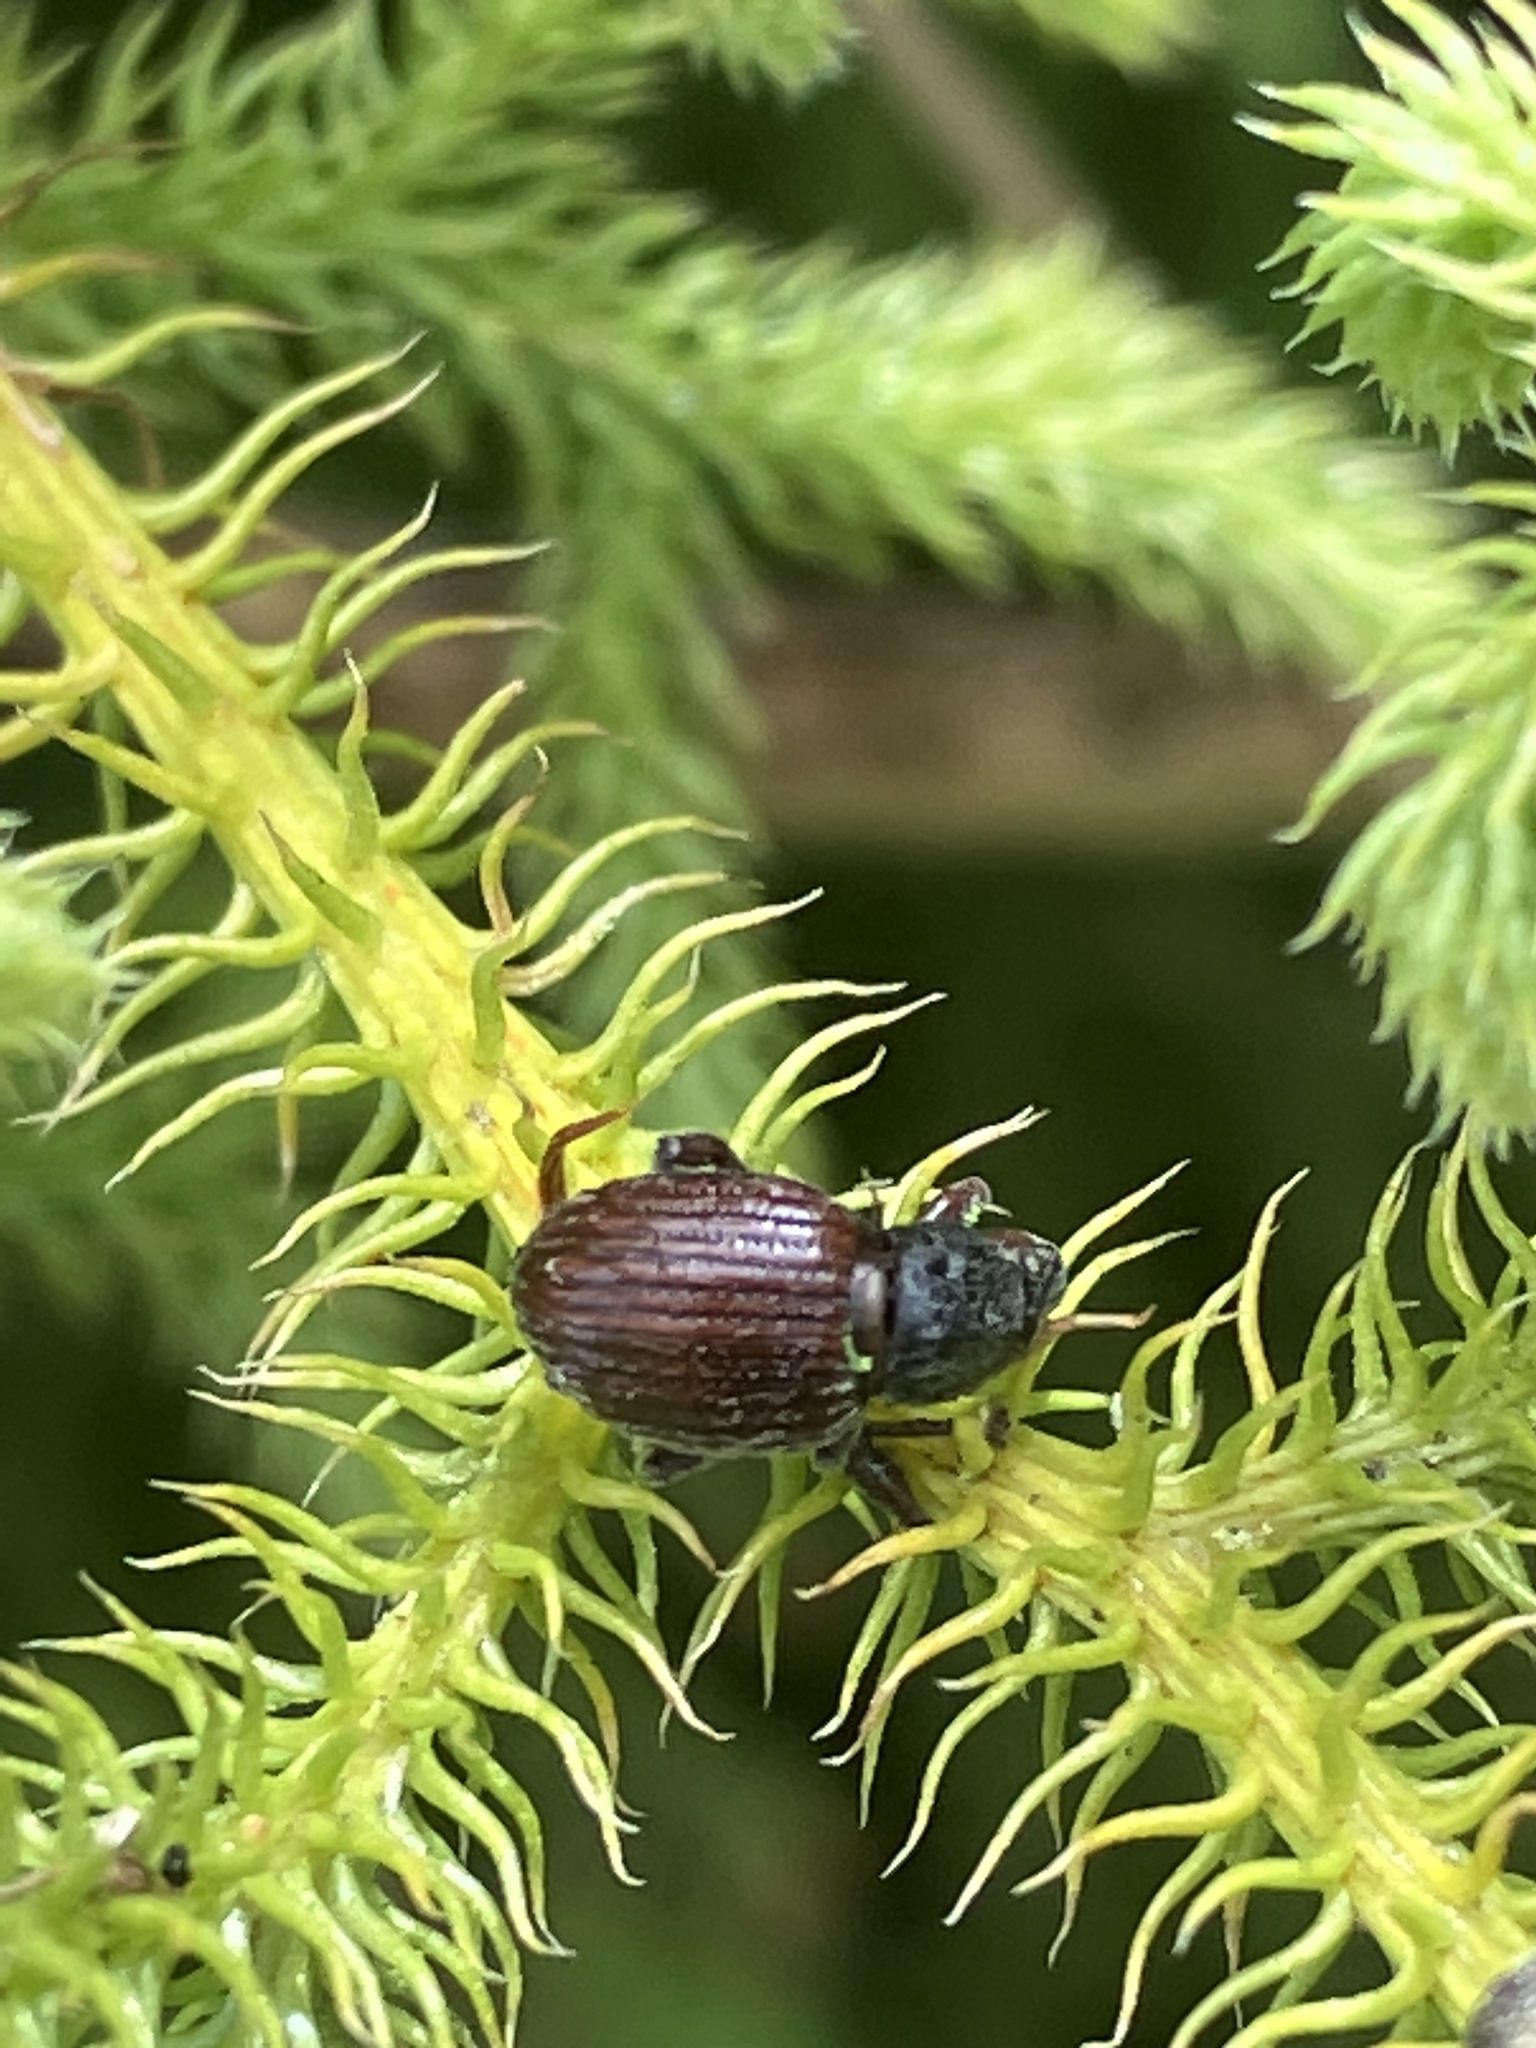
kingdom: Animalia
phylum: Arthropoda
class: Insecta
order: Coleoptera
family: Curculionidae
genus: Phlyctinus
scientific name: Phlyctinus callosus
